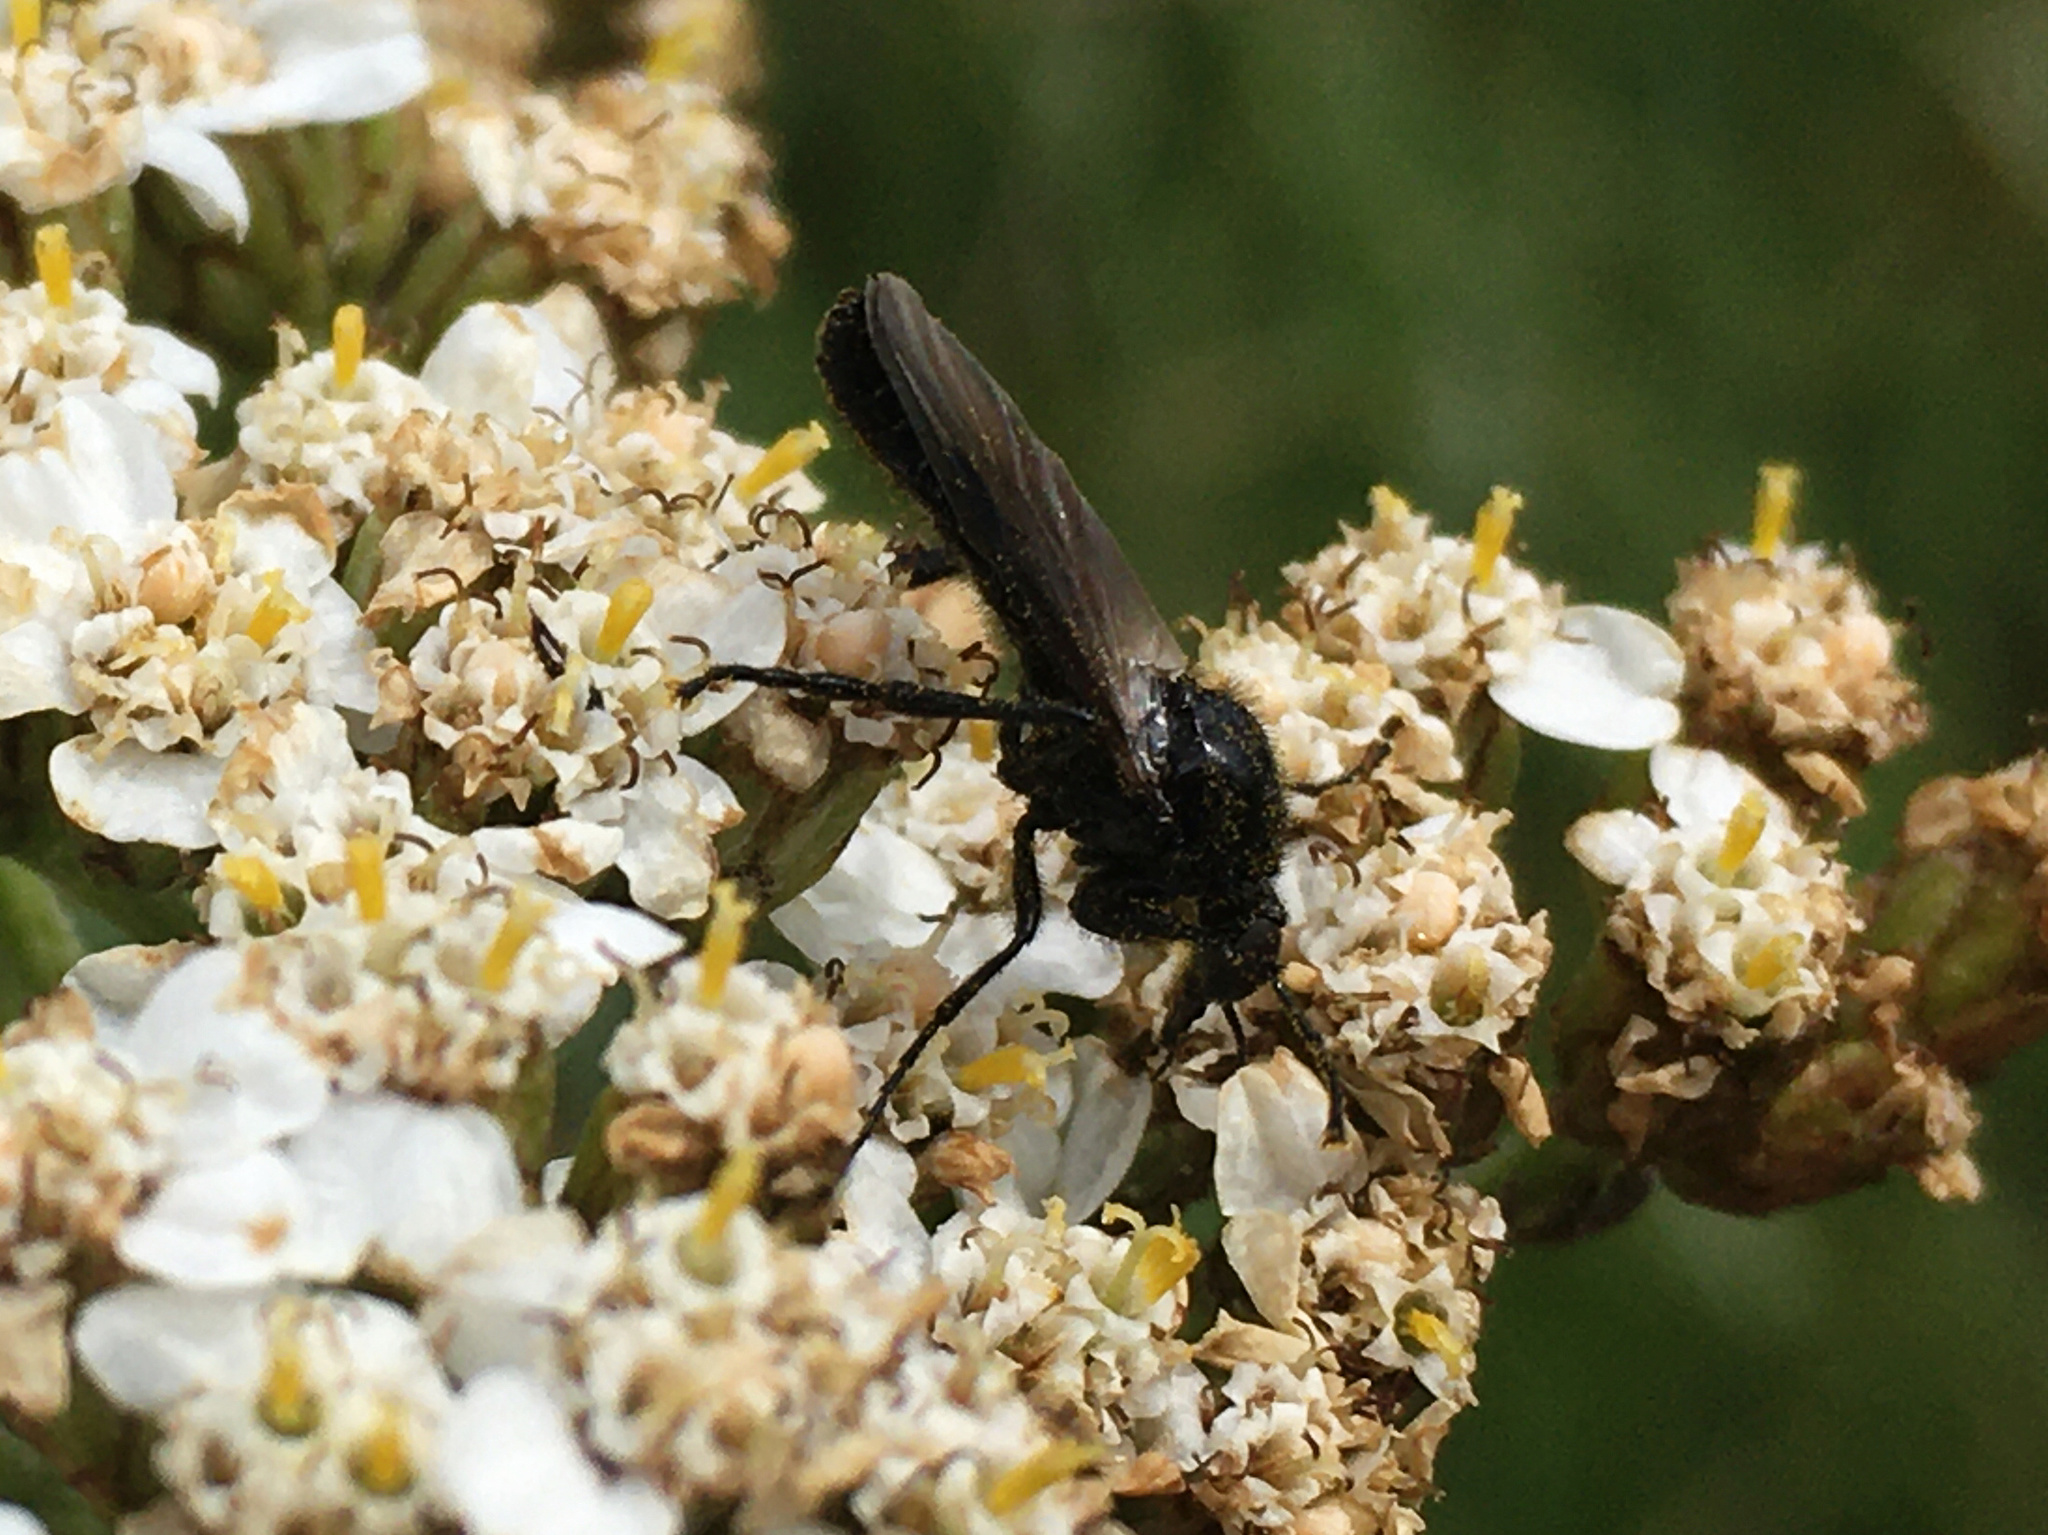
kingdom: Animalia
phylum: Arthropoda
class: Insecta
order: Diptera
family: Bibionidae
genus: Dilophus
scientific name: Dilophus nigrostigma
